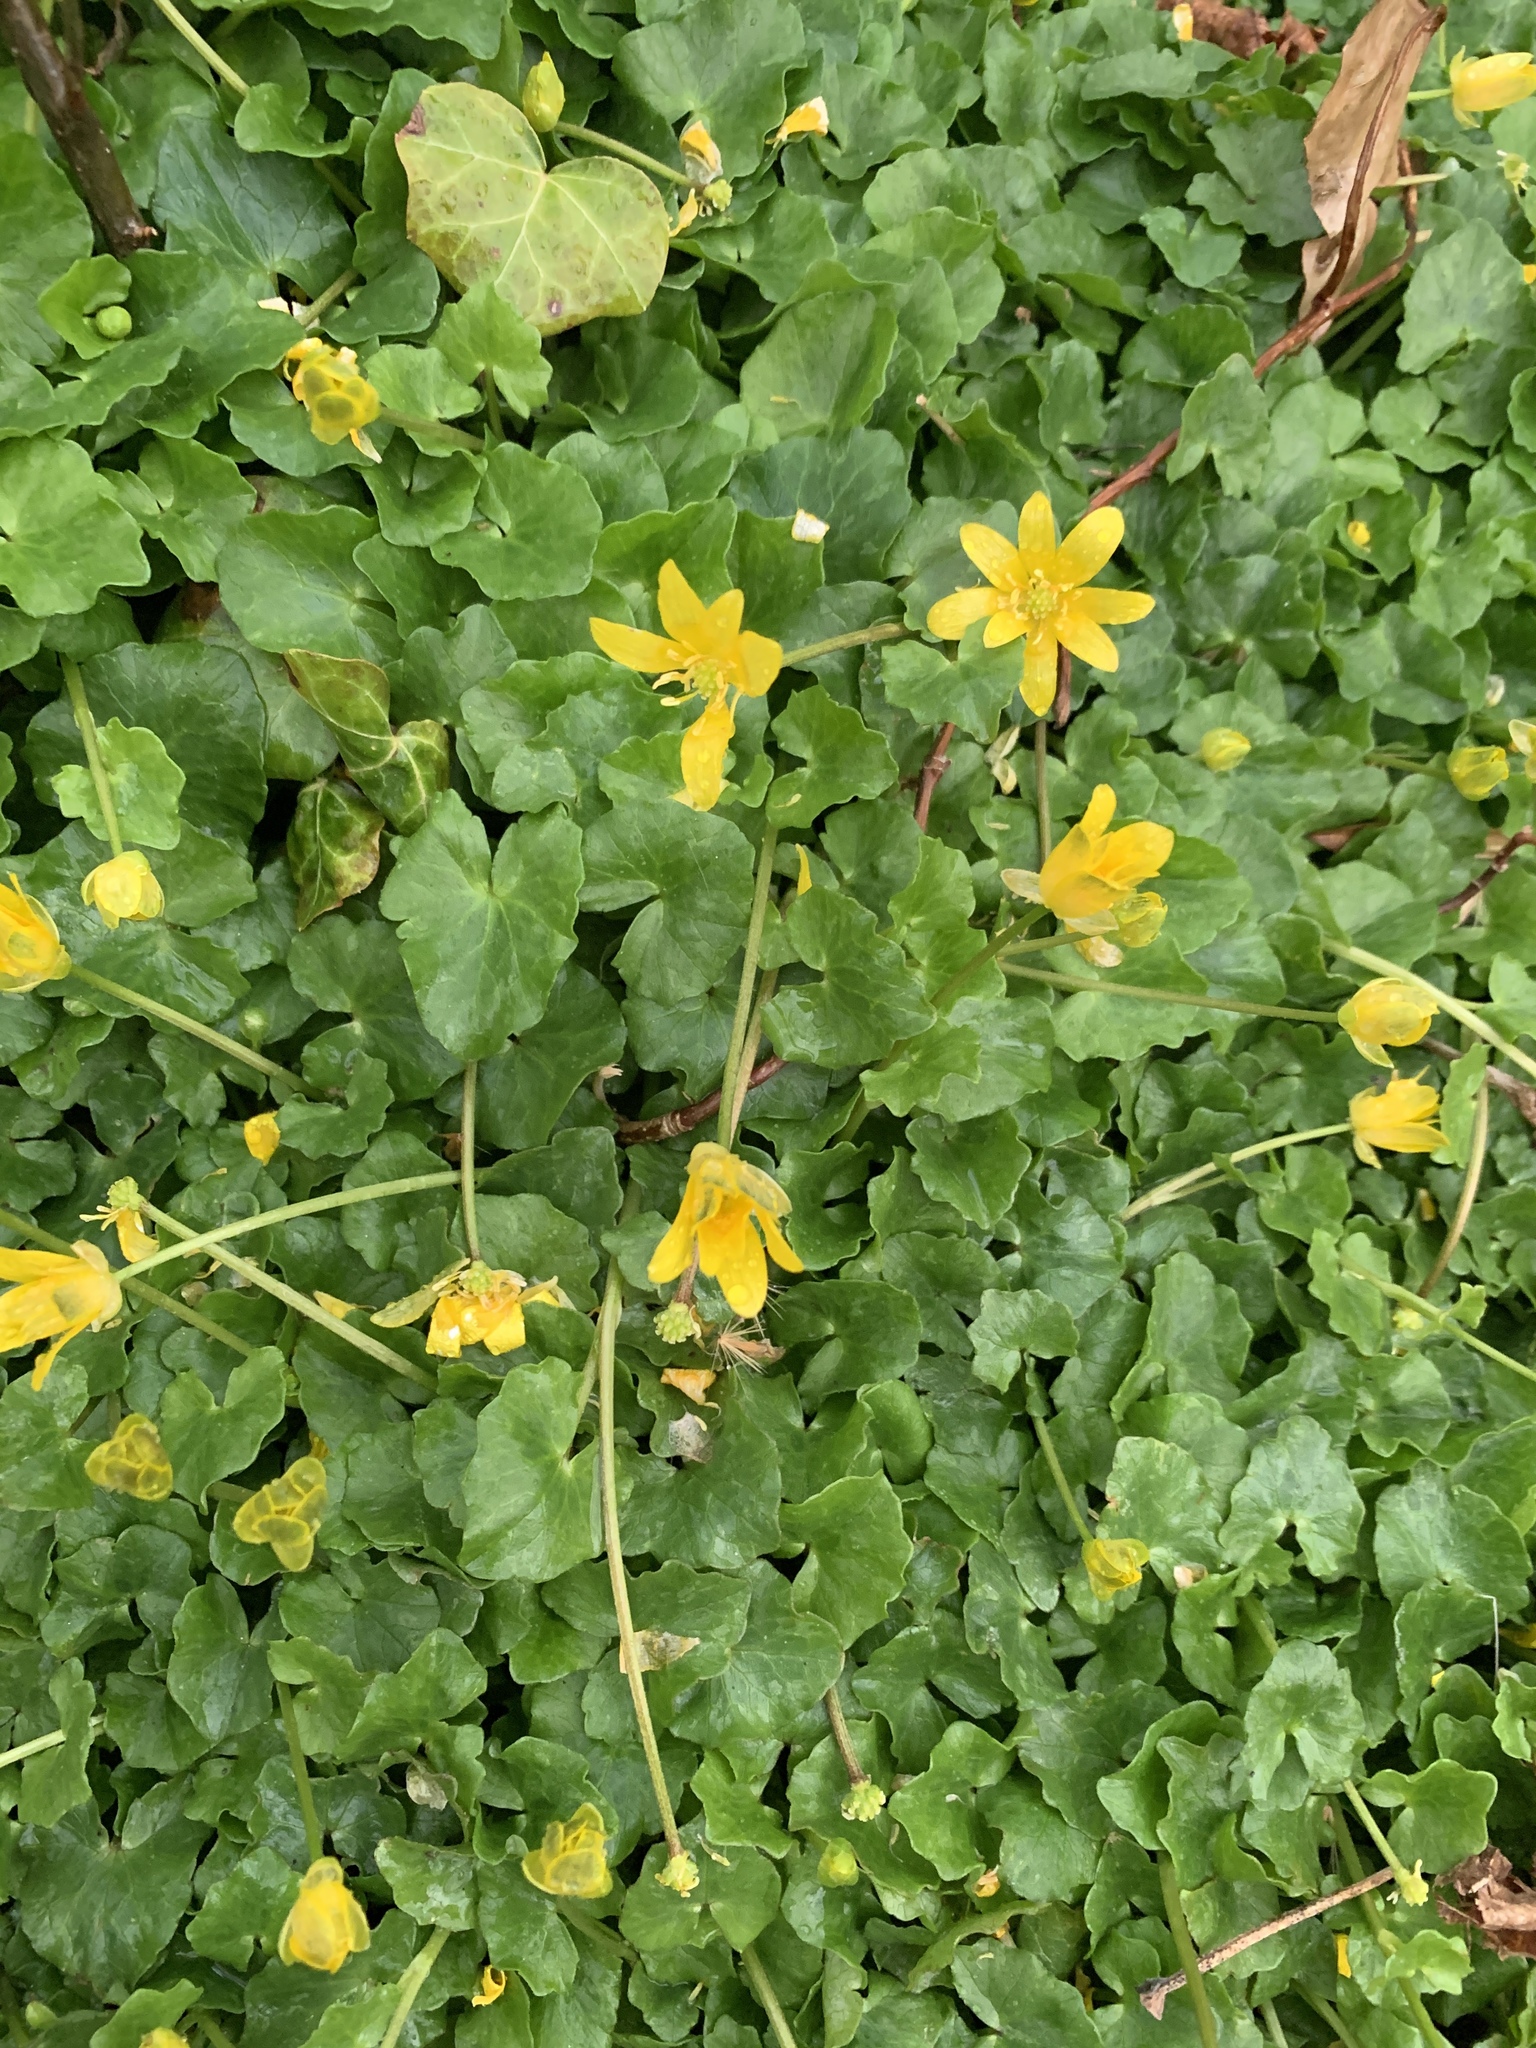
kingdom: Plantae
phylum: Tracheophyta
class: Magnoliopsida
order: Ranunculales
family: Ranunculaceae
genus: Ficaria
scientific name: Ficaria verna
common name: Lesser celandine
